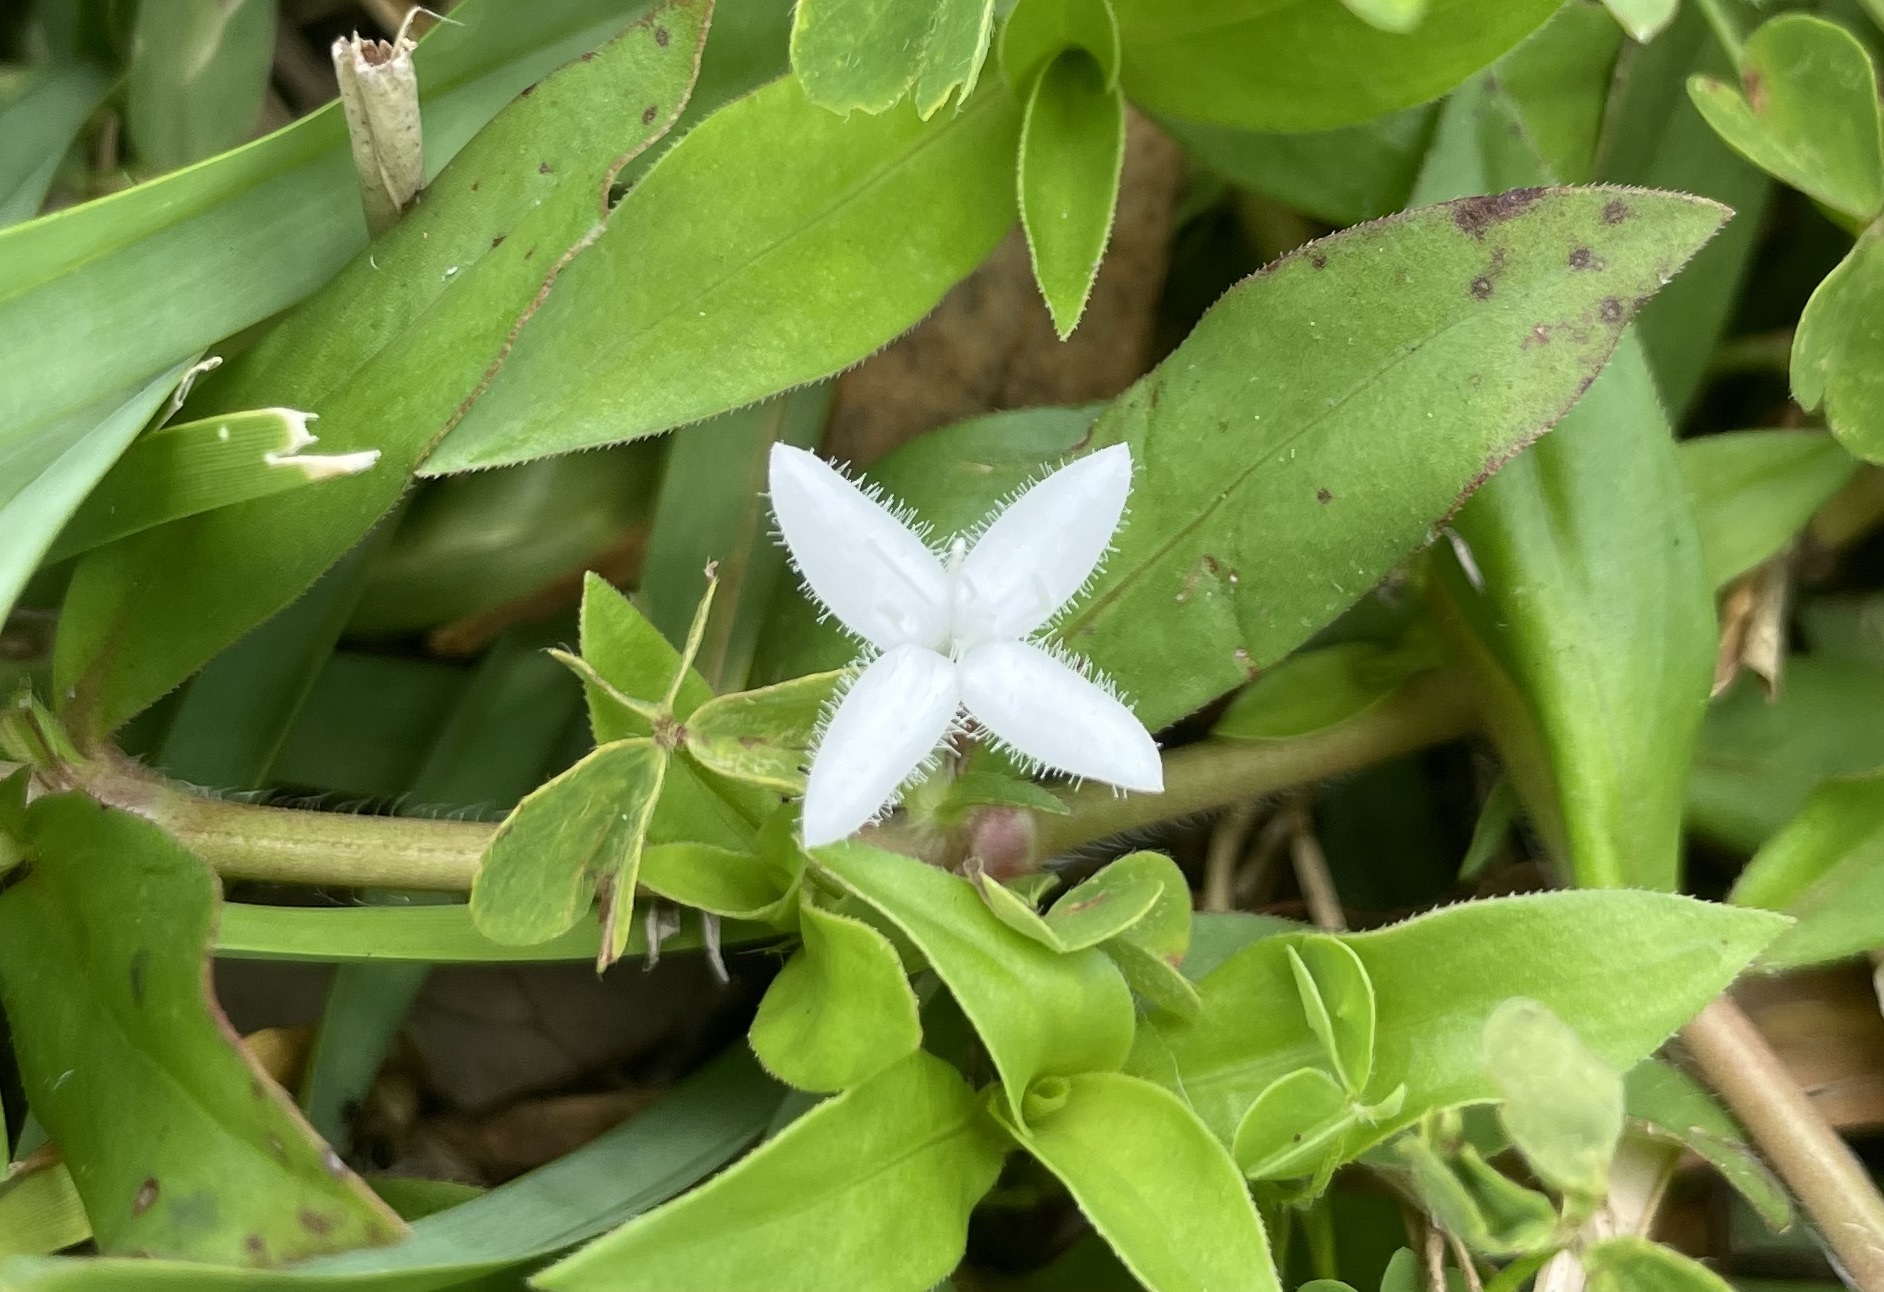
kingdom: Plantae
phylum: Tracheophyta
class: Magnoliopsida
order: Gentianales
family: Rubiaceae
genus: Diodia
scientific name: Diodia virginiana
